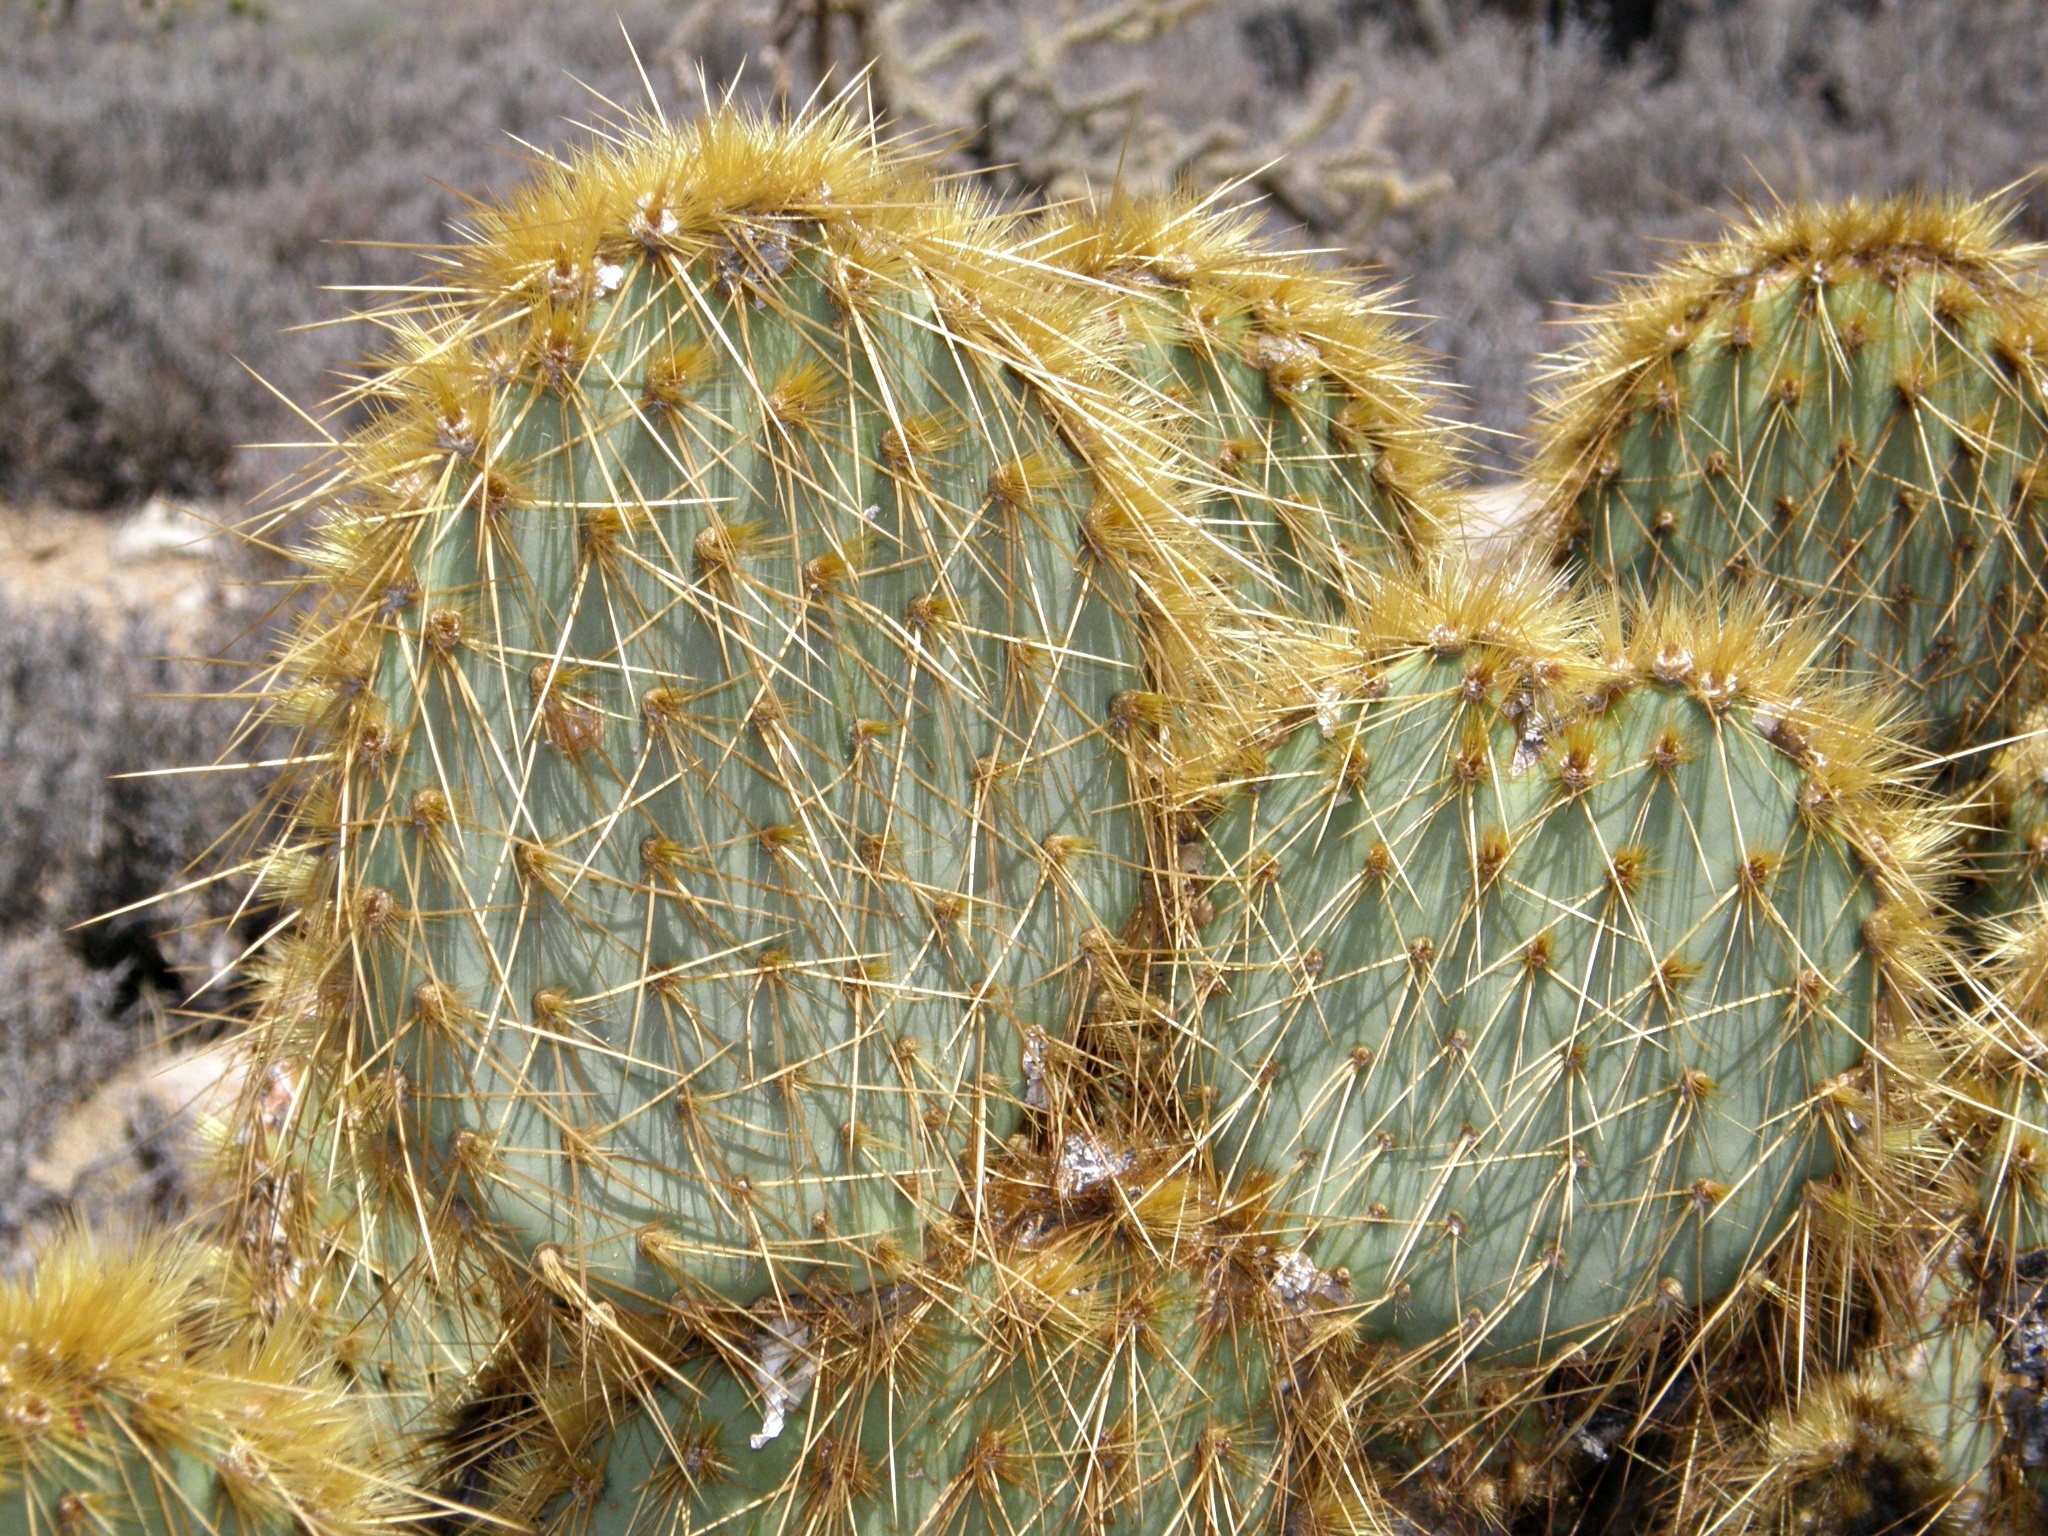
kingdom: Plantae
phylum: Tracheophyta
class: Magnoliopsida
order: Caryophyllales
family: Cactaceae
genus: Opuntia
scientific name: Opuntia chlorotica
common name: Dollar-joint prickly-pear
